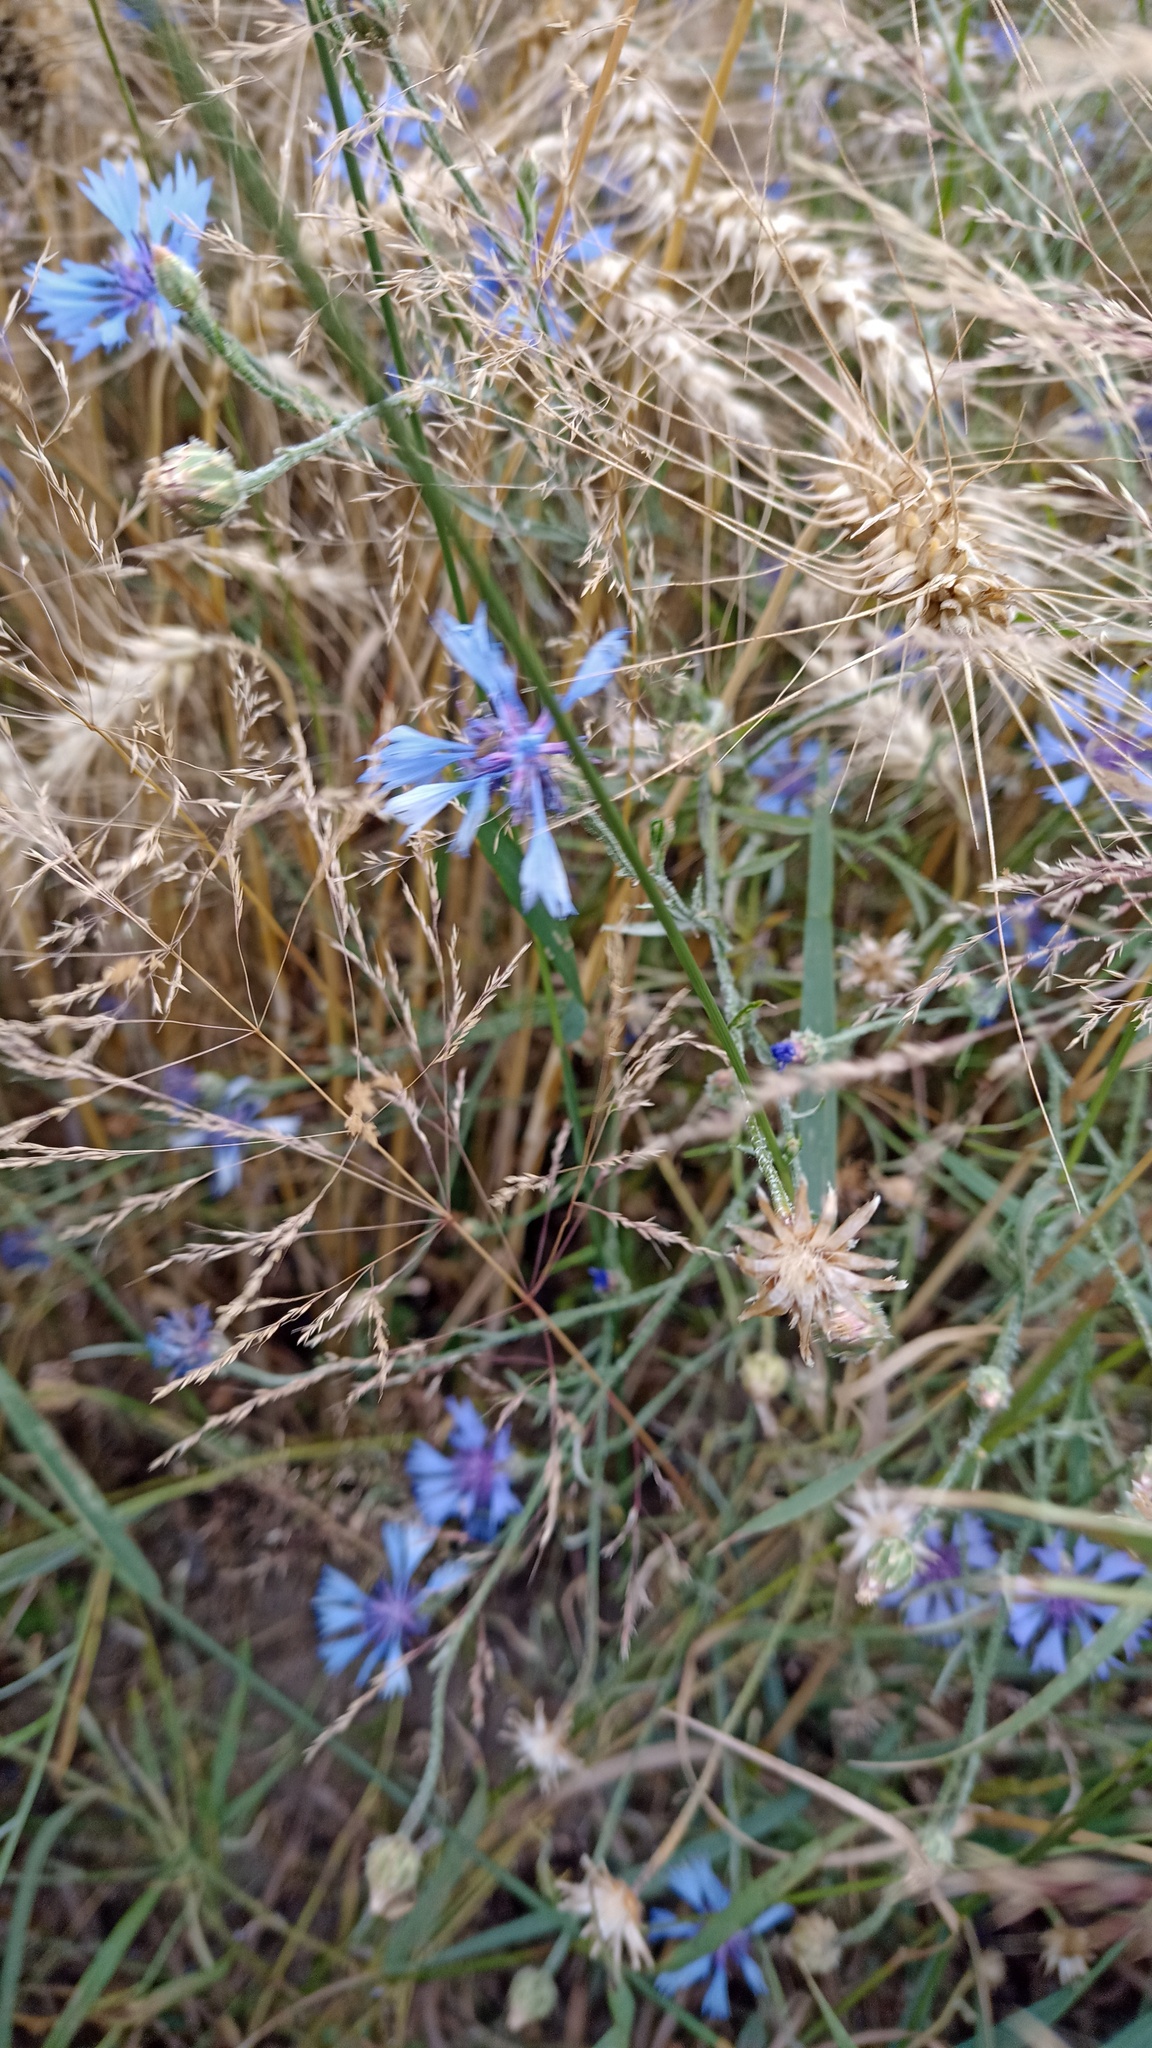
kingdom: Plantae
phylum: Tracheophyta
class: Magnoliopsida
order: Asterales
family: Asteraceae
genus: Centaurea
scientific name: Centaurea cyanus
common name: Cornflower
